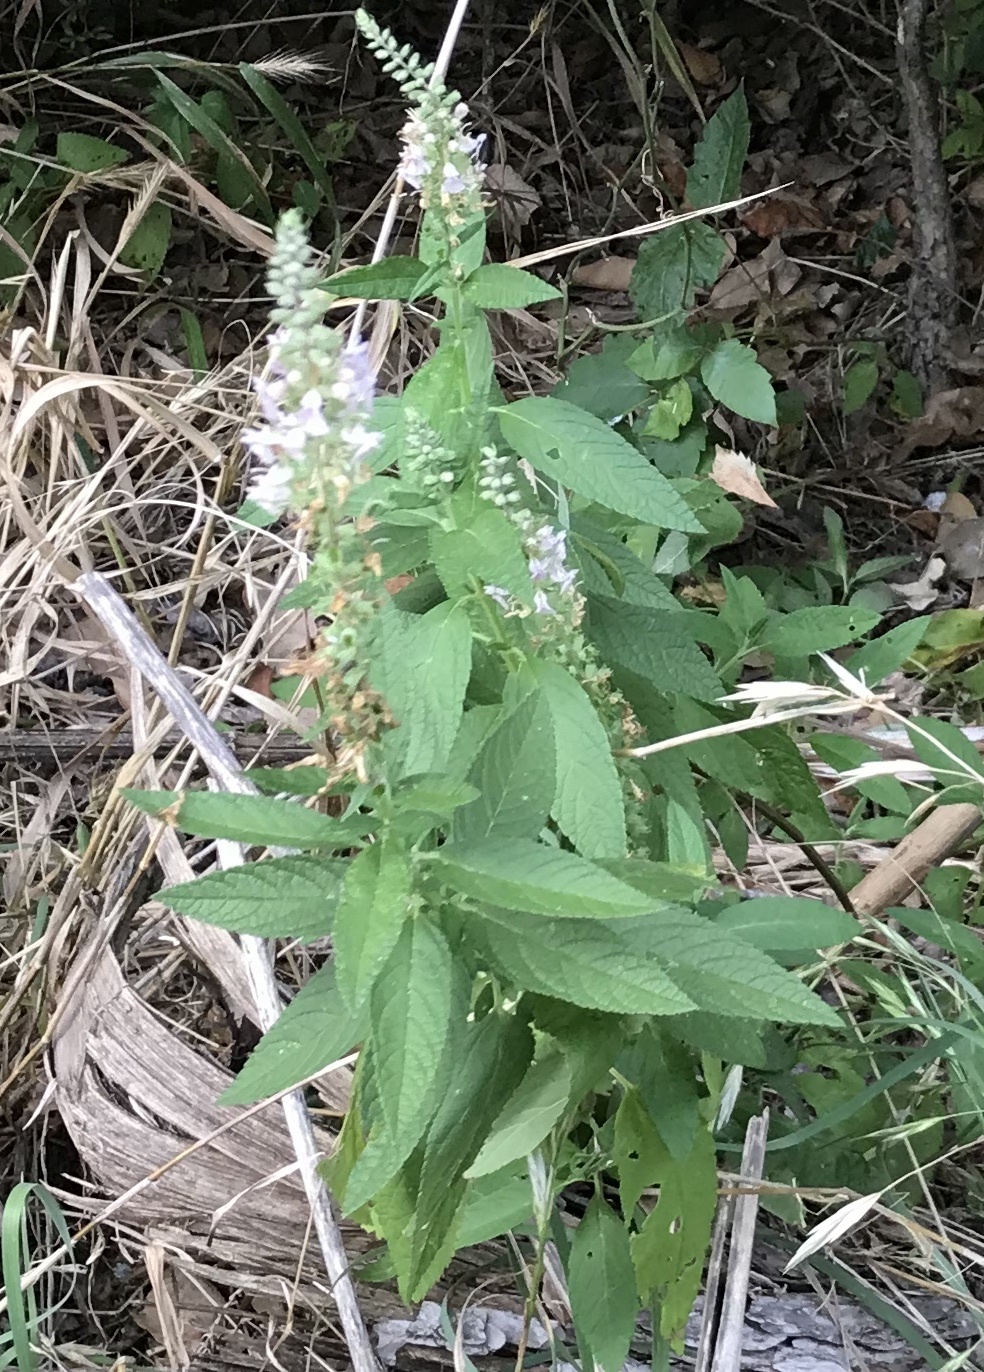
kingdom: Plantae
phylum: Tracheophyta
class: Magnoliopsida
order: Lamiales
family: Lamiaceae
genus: Teucrium
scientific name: Teucrium canadense
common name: American germander
